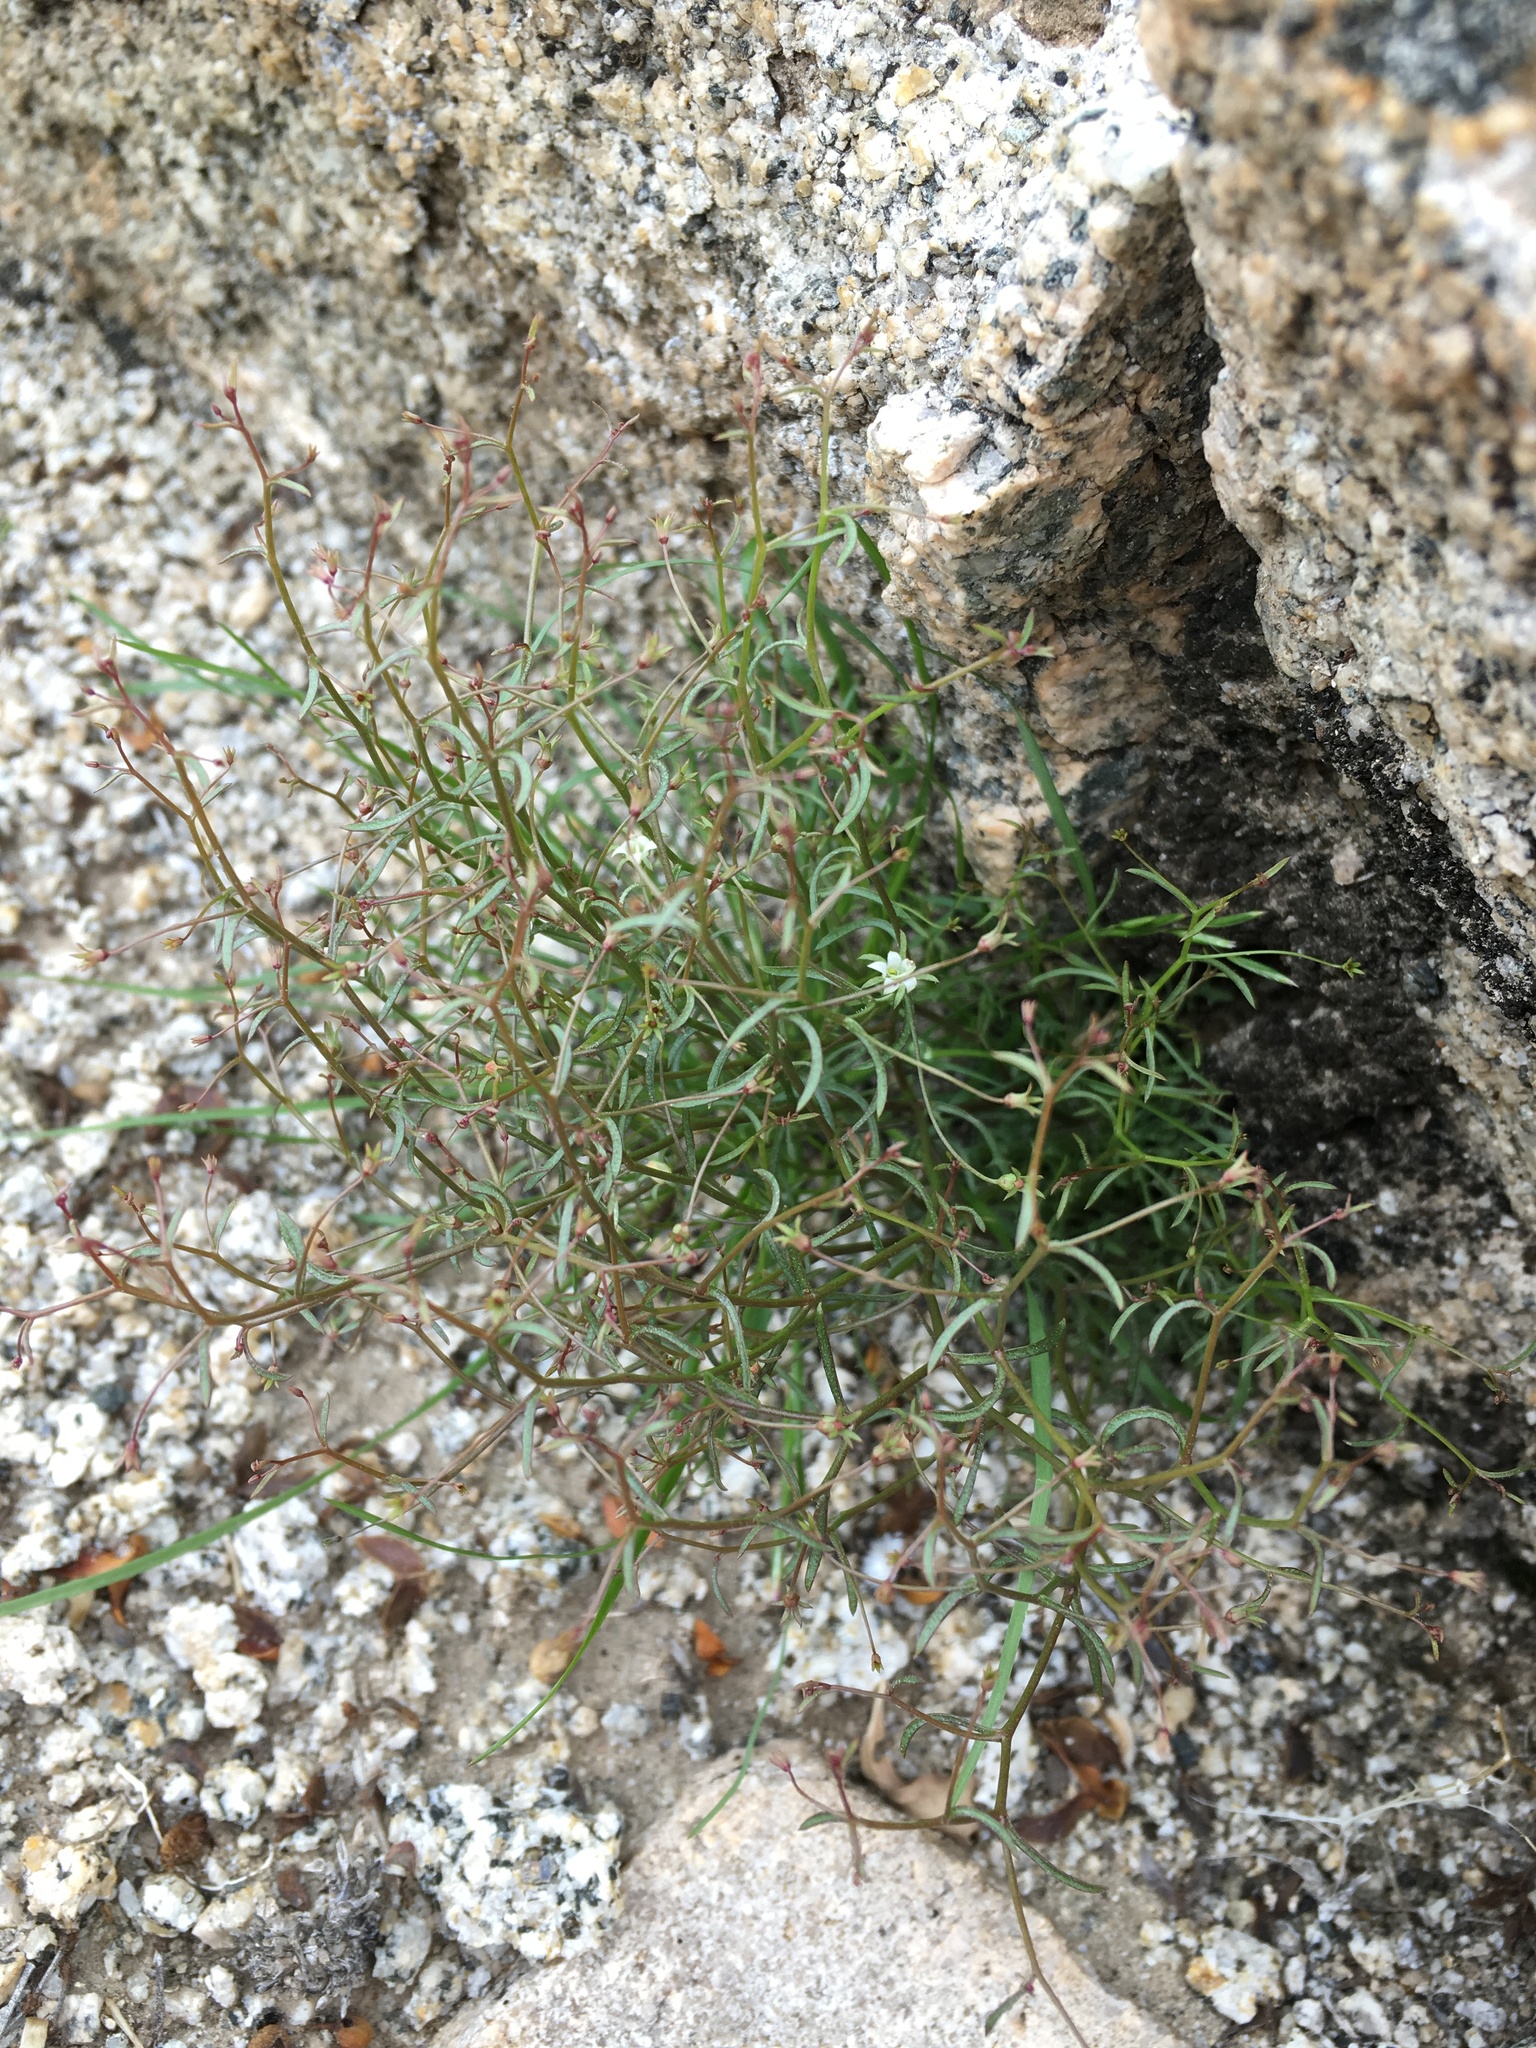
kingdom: Plantae
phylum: Tracheophyta
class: Magnoliopsida
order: Asterales
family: Campanulaceae
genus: Nemacladus
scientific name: Nemacladus glanduliferus
